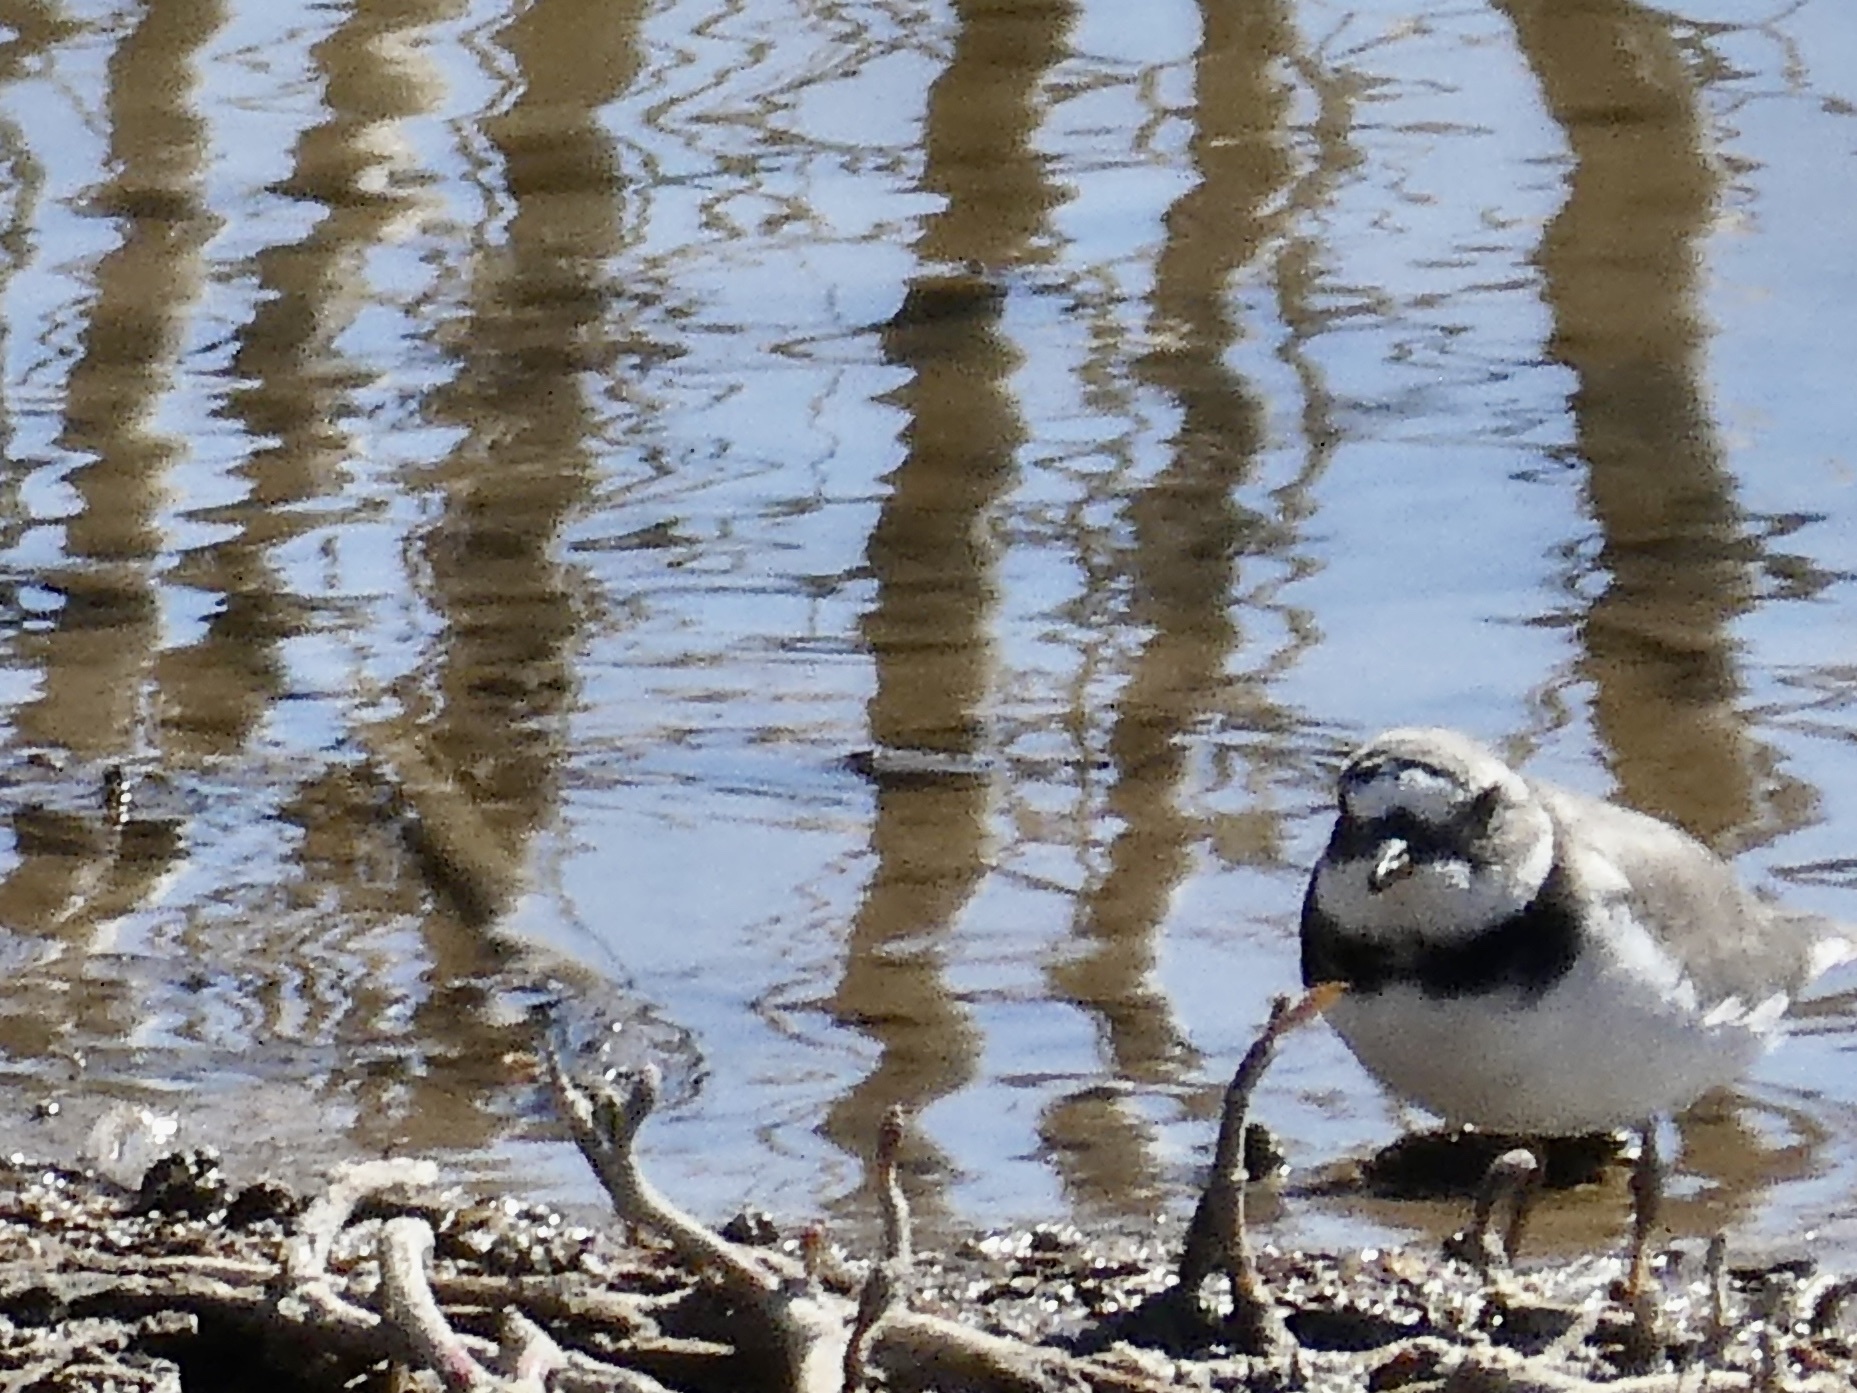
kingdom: Animalia
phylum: Chordata
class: Aves
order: Charadriiformes
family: Charadriidae
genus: Charadrius
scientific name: Charadrius hiaticula
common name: Common ringed plover
